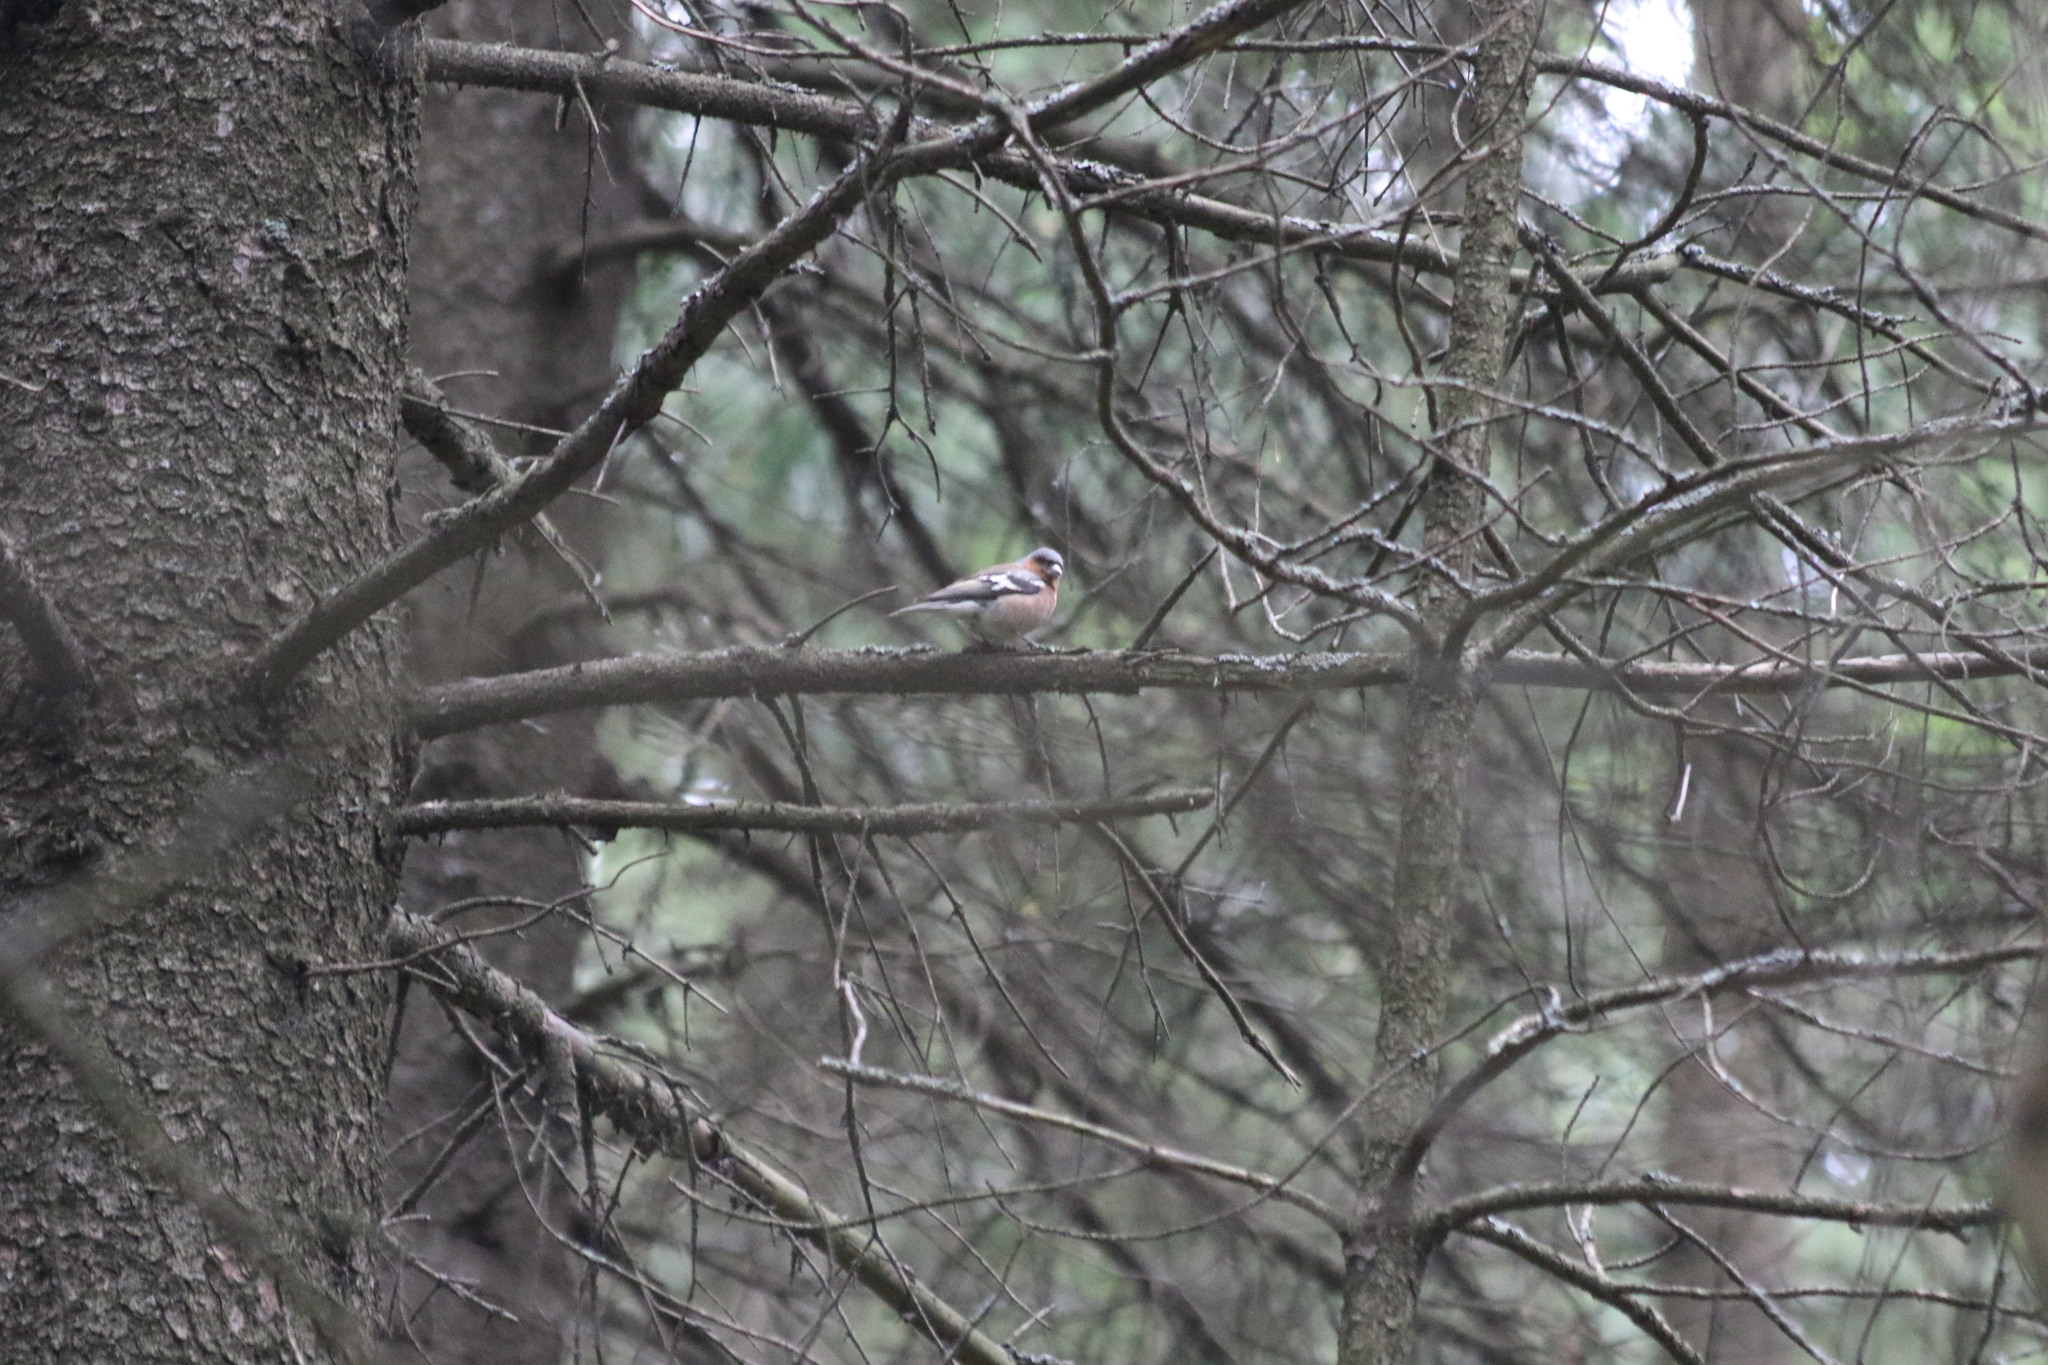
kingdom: Animalia
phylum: Chordata
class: Aves
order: Passeriformes
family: Fringillidae
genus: Fringilla
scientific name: Fringilla coelebs
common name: Common chaffinch
